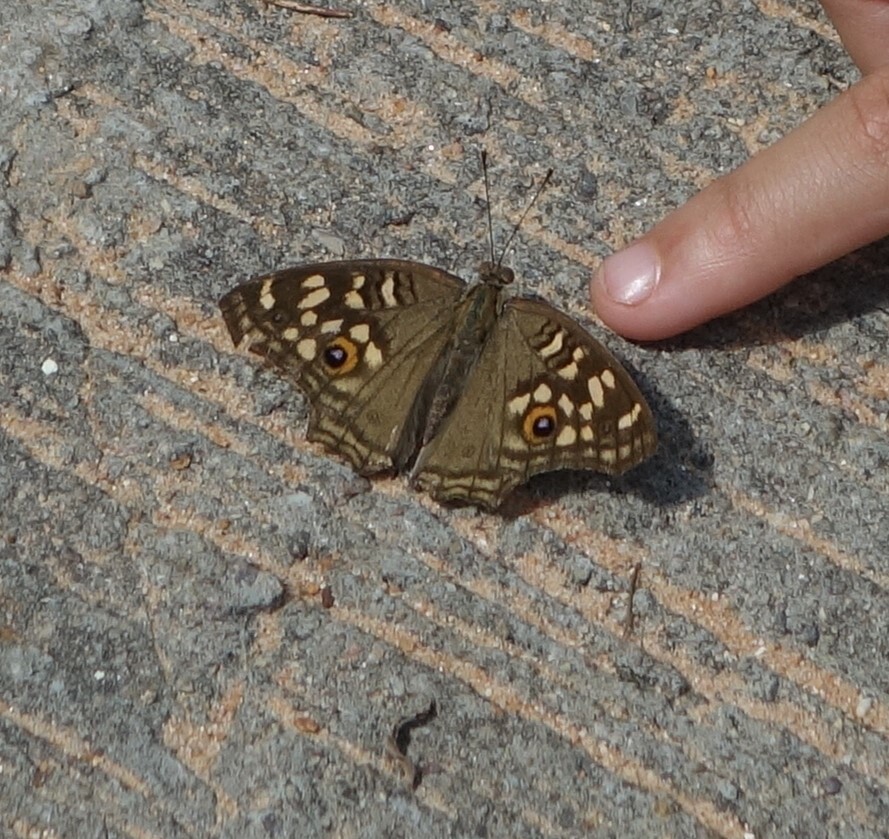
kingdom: Animalia
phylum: Arthropoda
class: Insecta
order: Lepidoptera
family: Nymphalidae
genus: Junonia
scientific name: Junonia lemonias
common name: Lemon pansy
